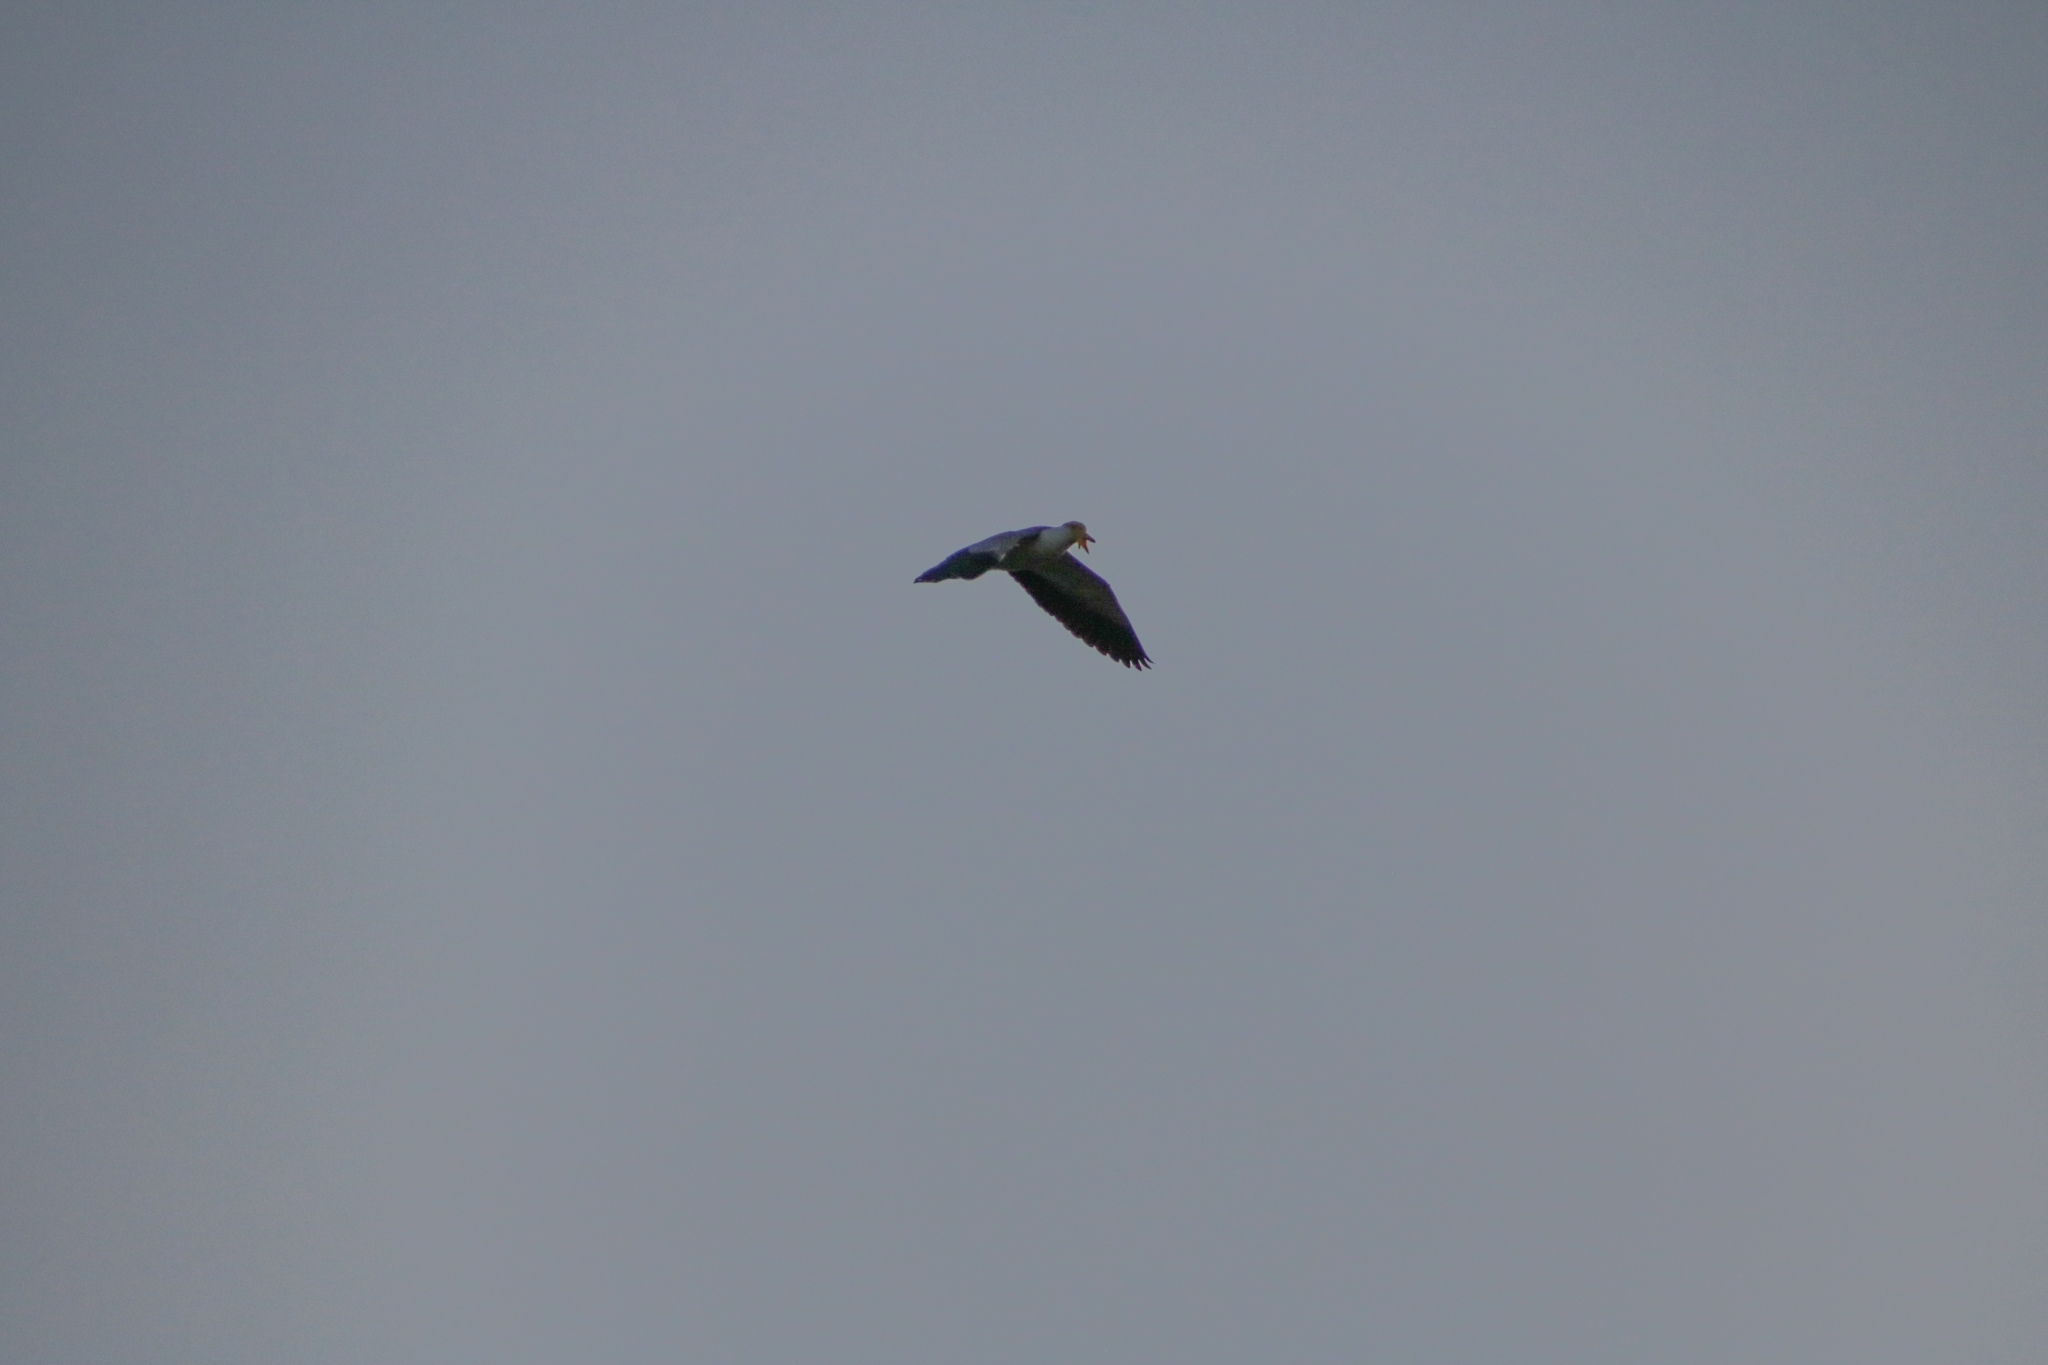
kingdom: Animalia
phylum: Chordata
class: Aves
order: Charadriiformes
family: Charadriidae
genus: Vanellus
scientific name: Vanellus miles
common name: Masked lapwing
